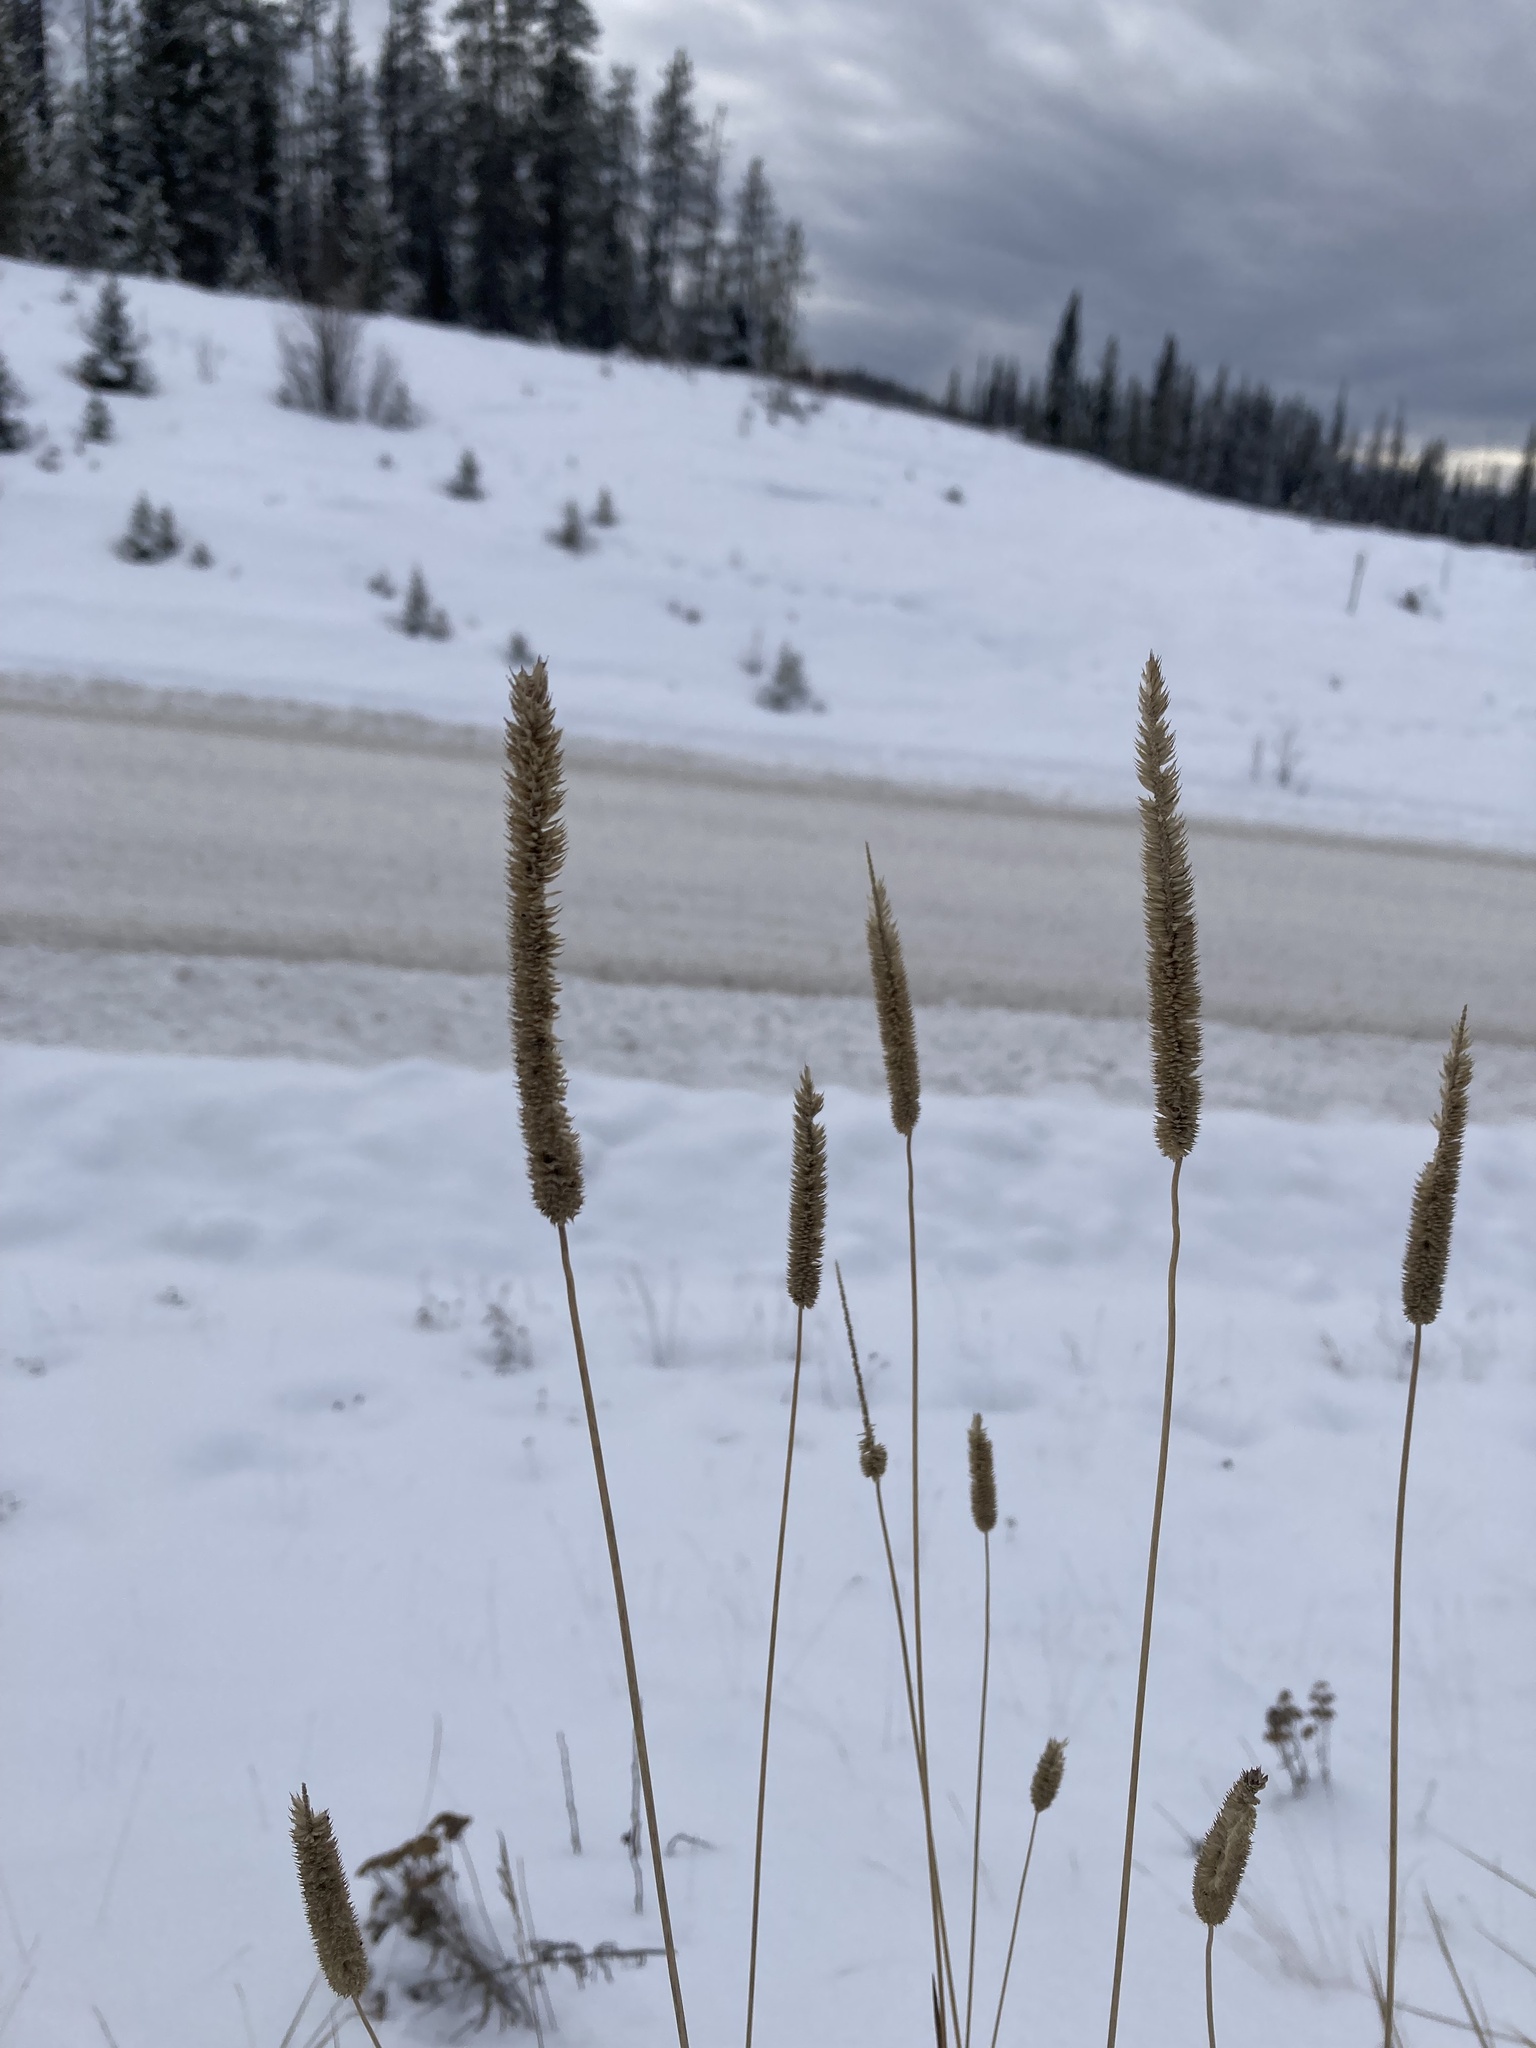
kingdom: Plantae
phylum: Tracheophyta
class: Liliopsida
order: Poales
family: Poaceae
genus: Phleum
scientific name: Phleum pratense
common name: Timothy grass
